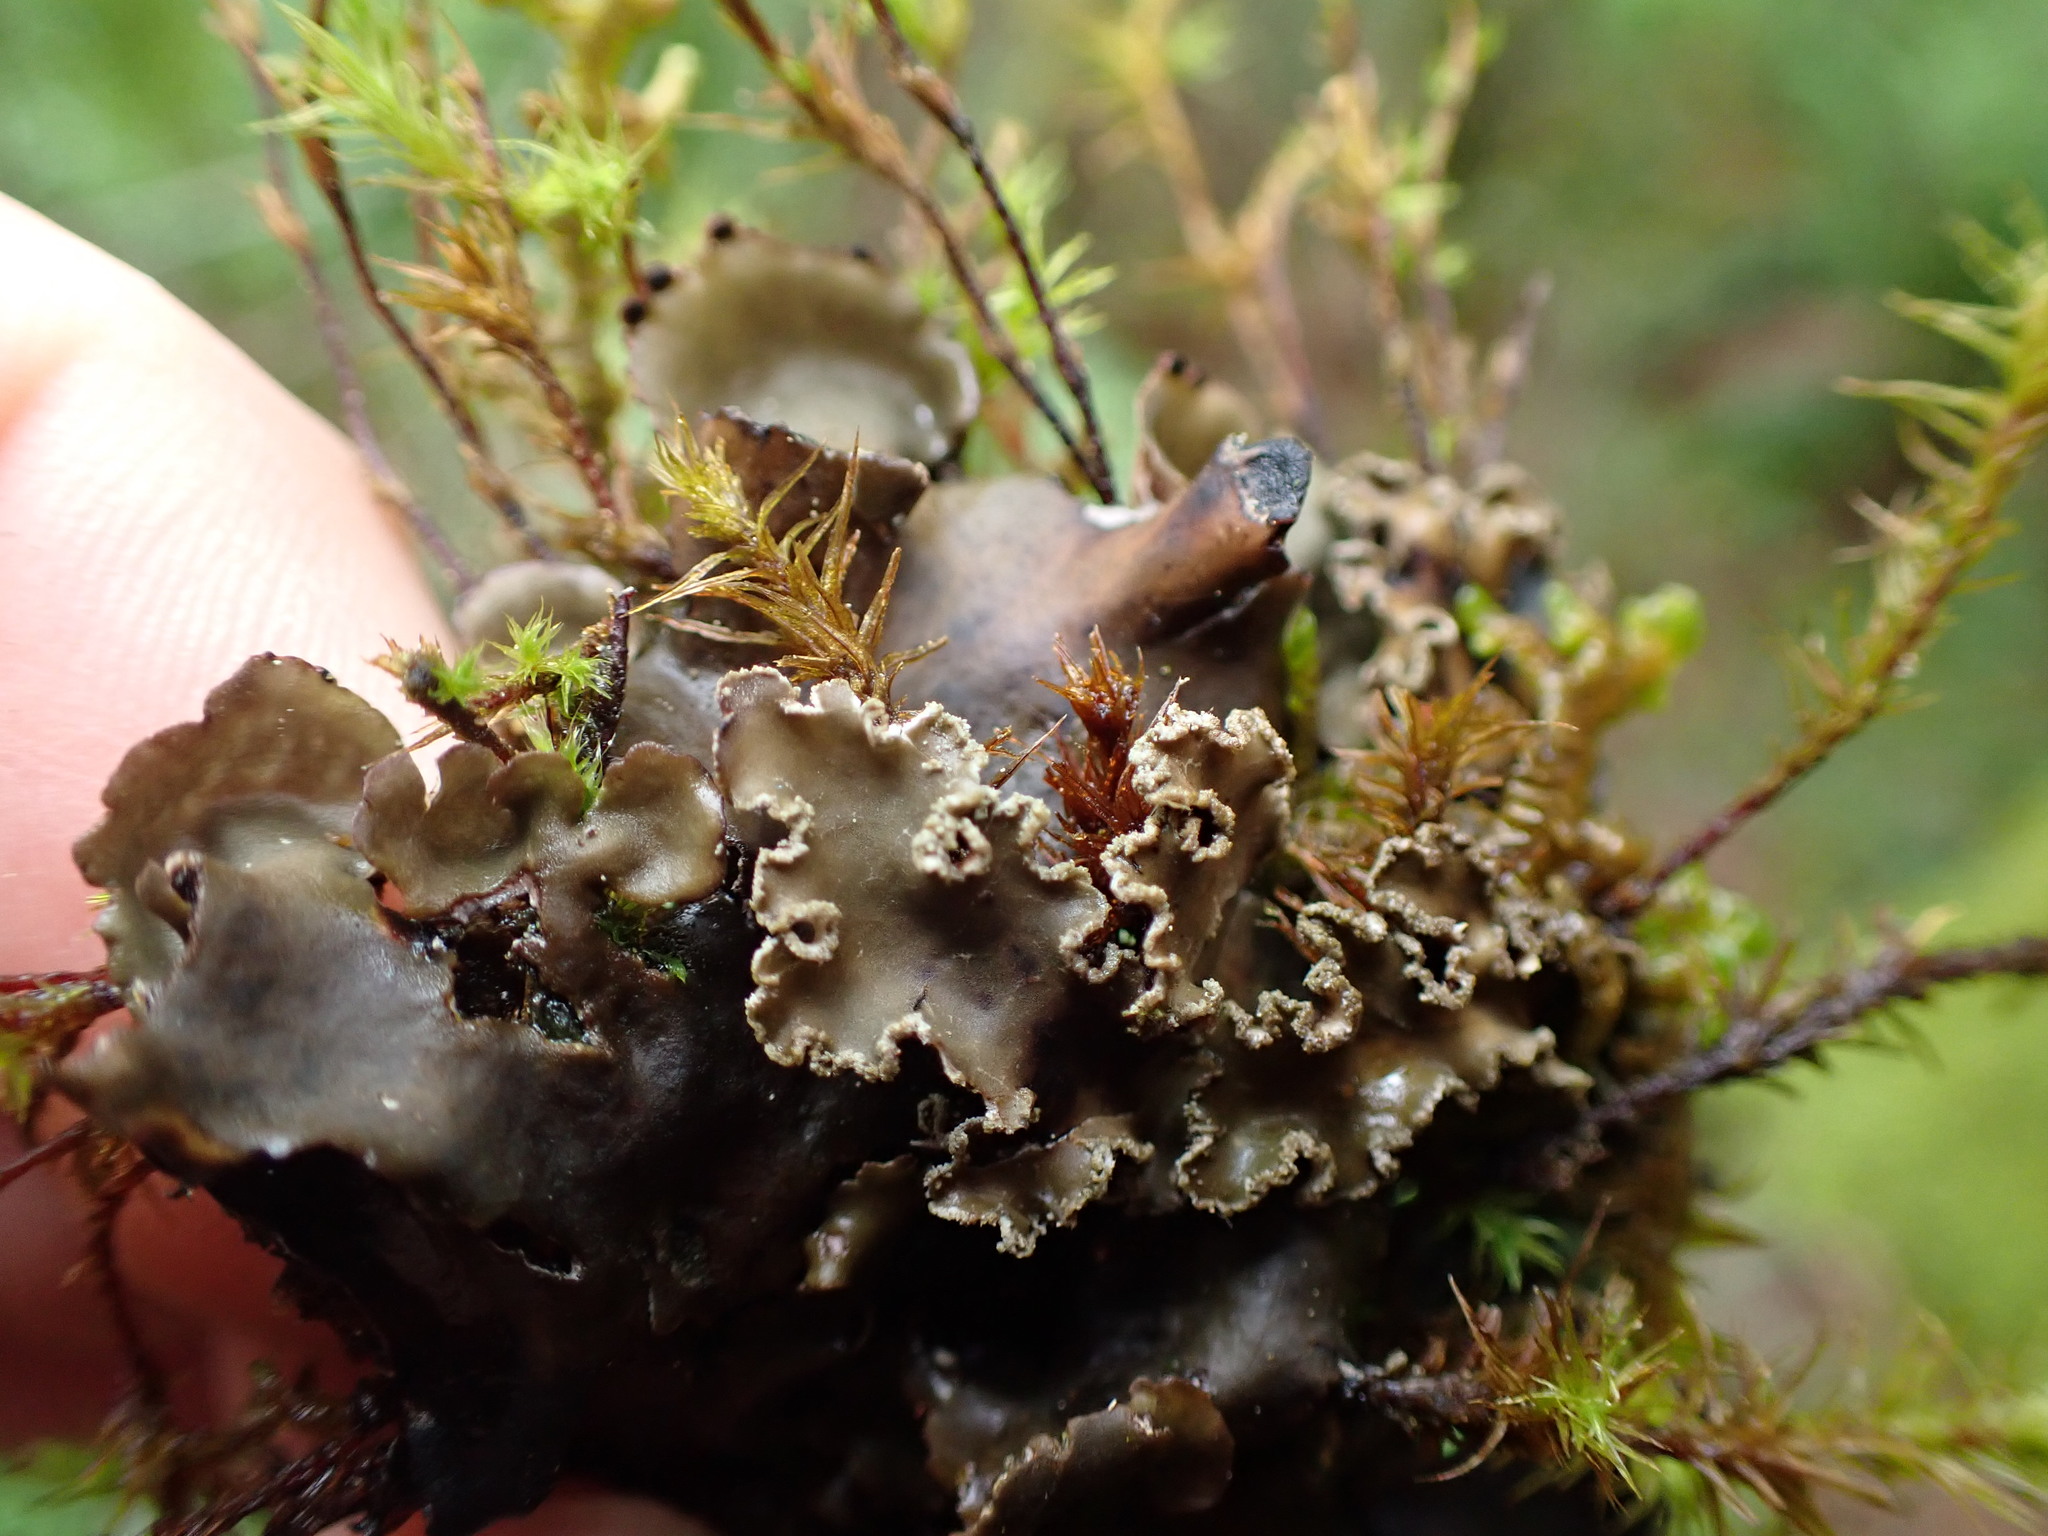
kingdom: Fungi
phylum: Ascomycota
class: Lecanoromycetes
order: Peltigerales
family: Peltigeraceae
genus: Peltigera
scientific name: Peltigera collina
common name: Gritty tree pelt lichen
